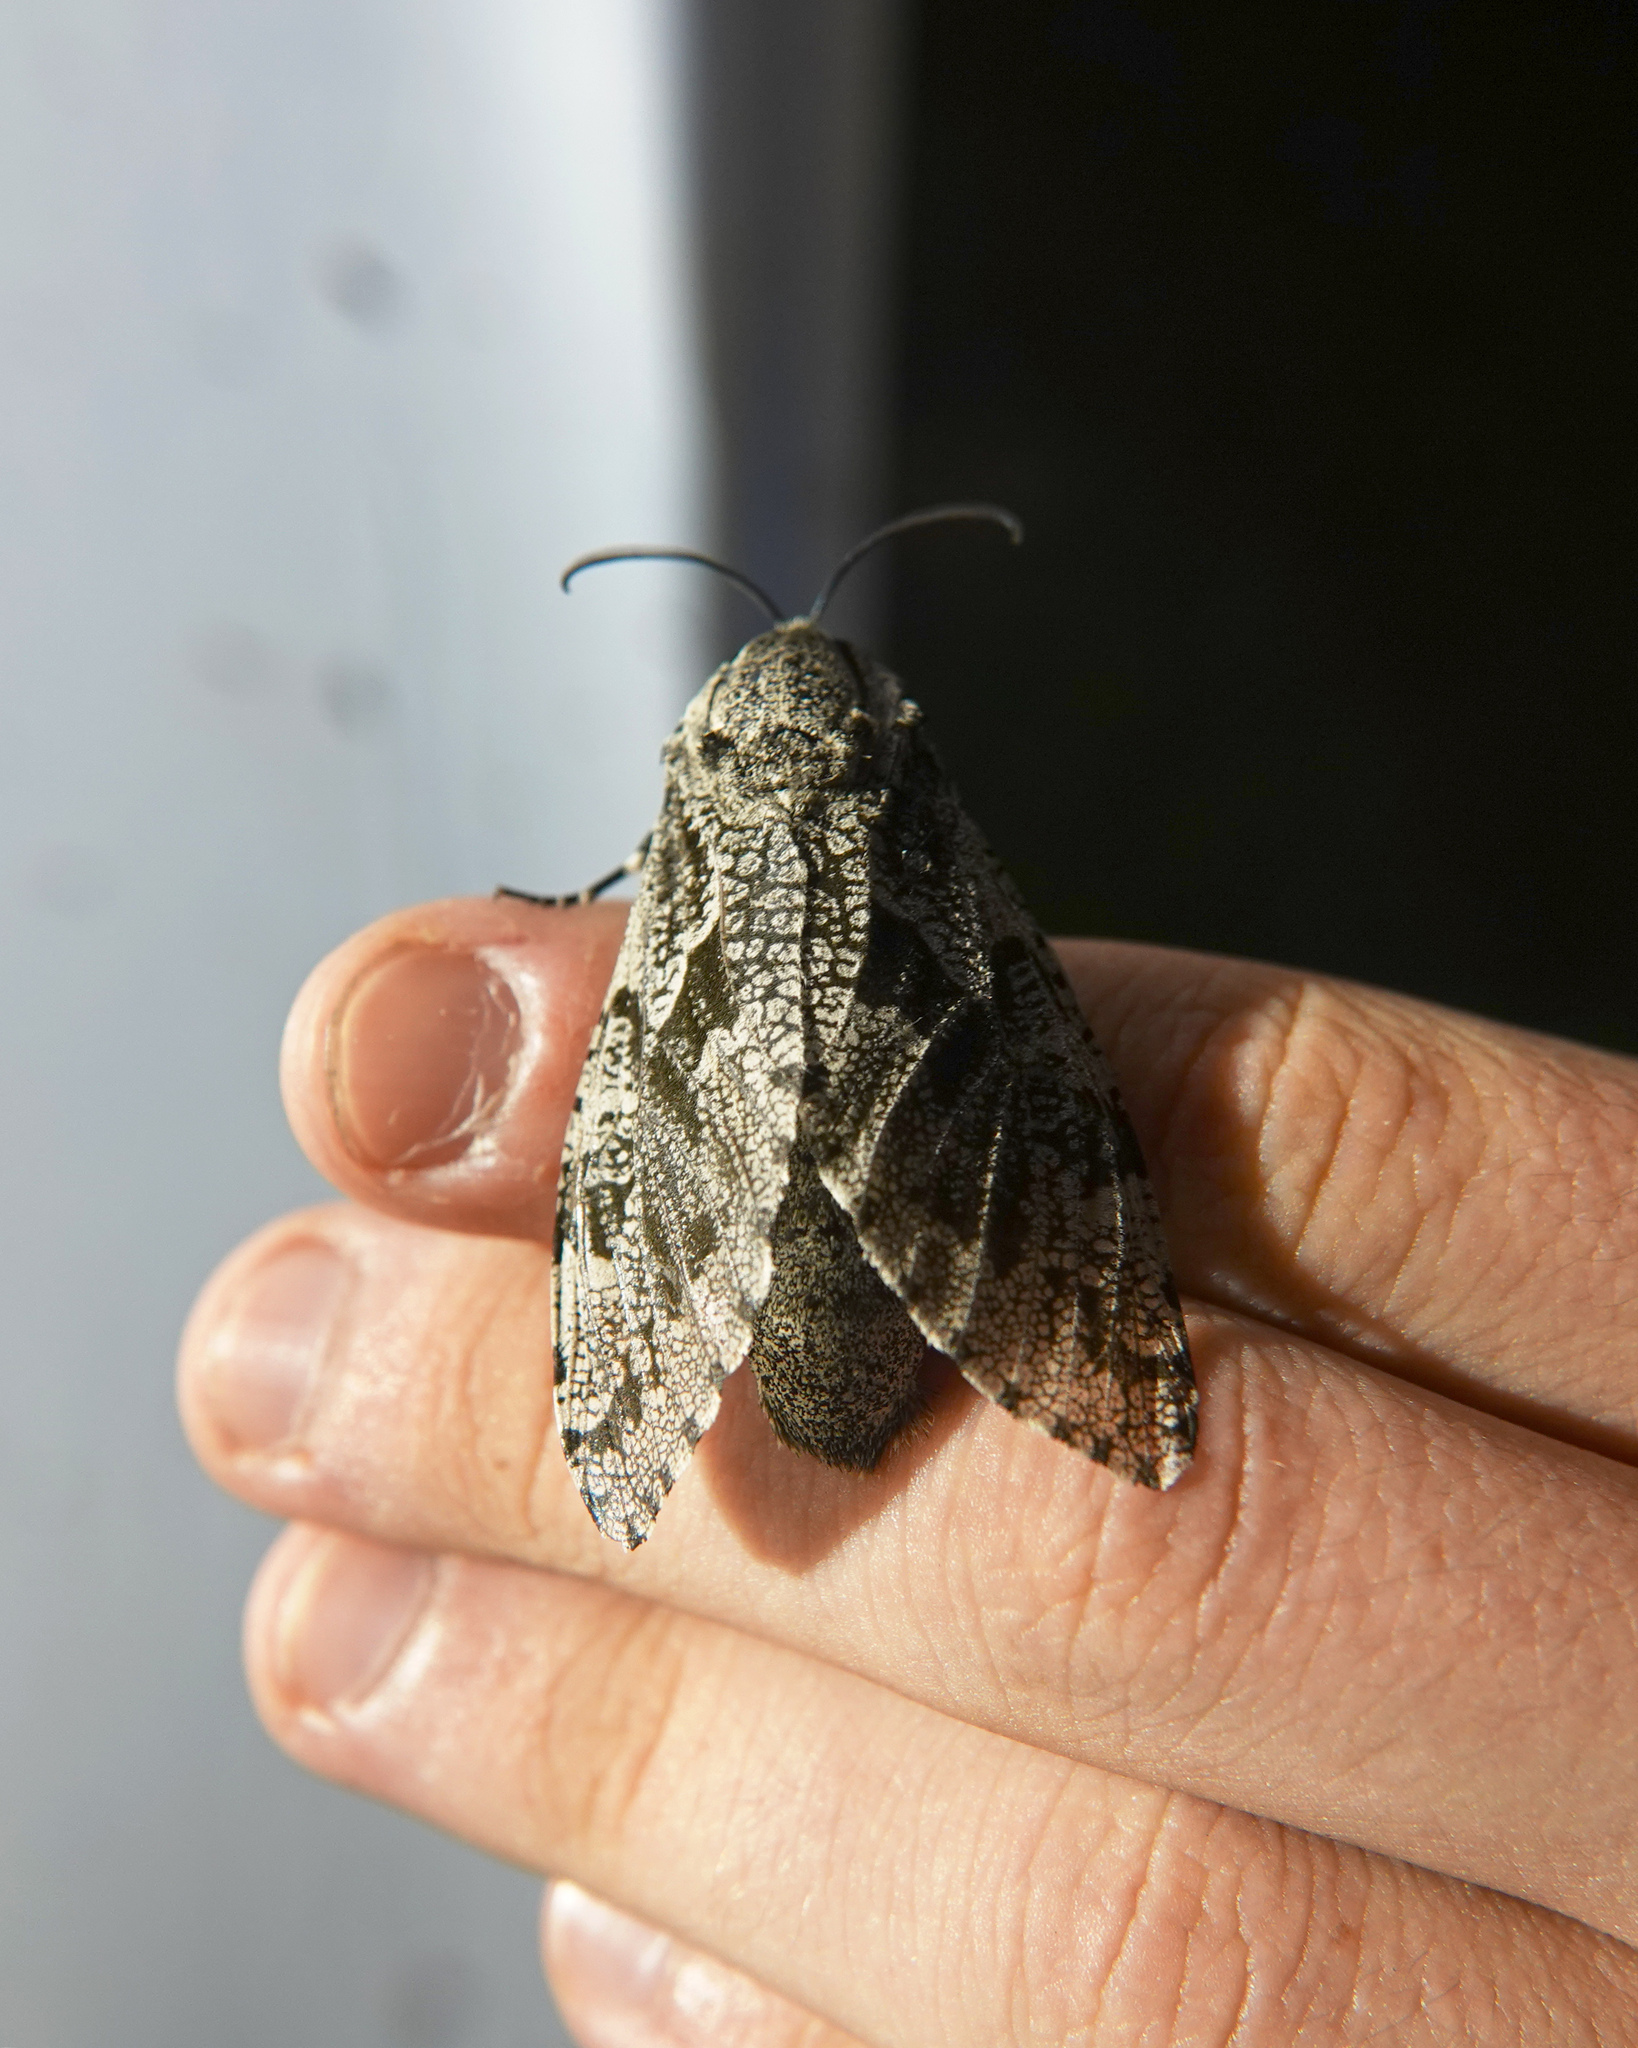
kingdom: Animalia
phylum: Arthropoda
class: Insecta
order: Lepidoptera
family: Cossidae
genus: Prionoxystus
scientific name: Prionoxystus robiniae
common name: Carpenterworm
